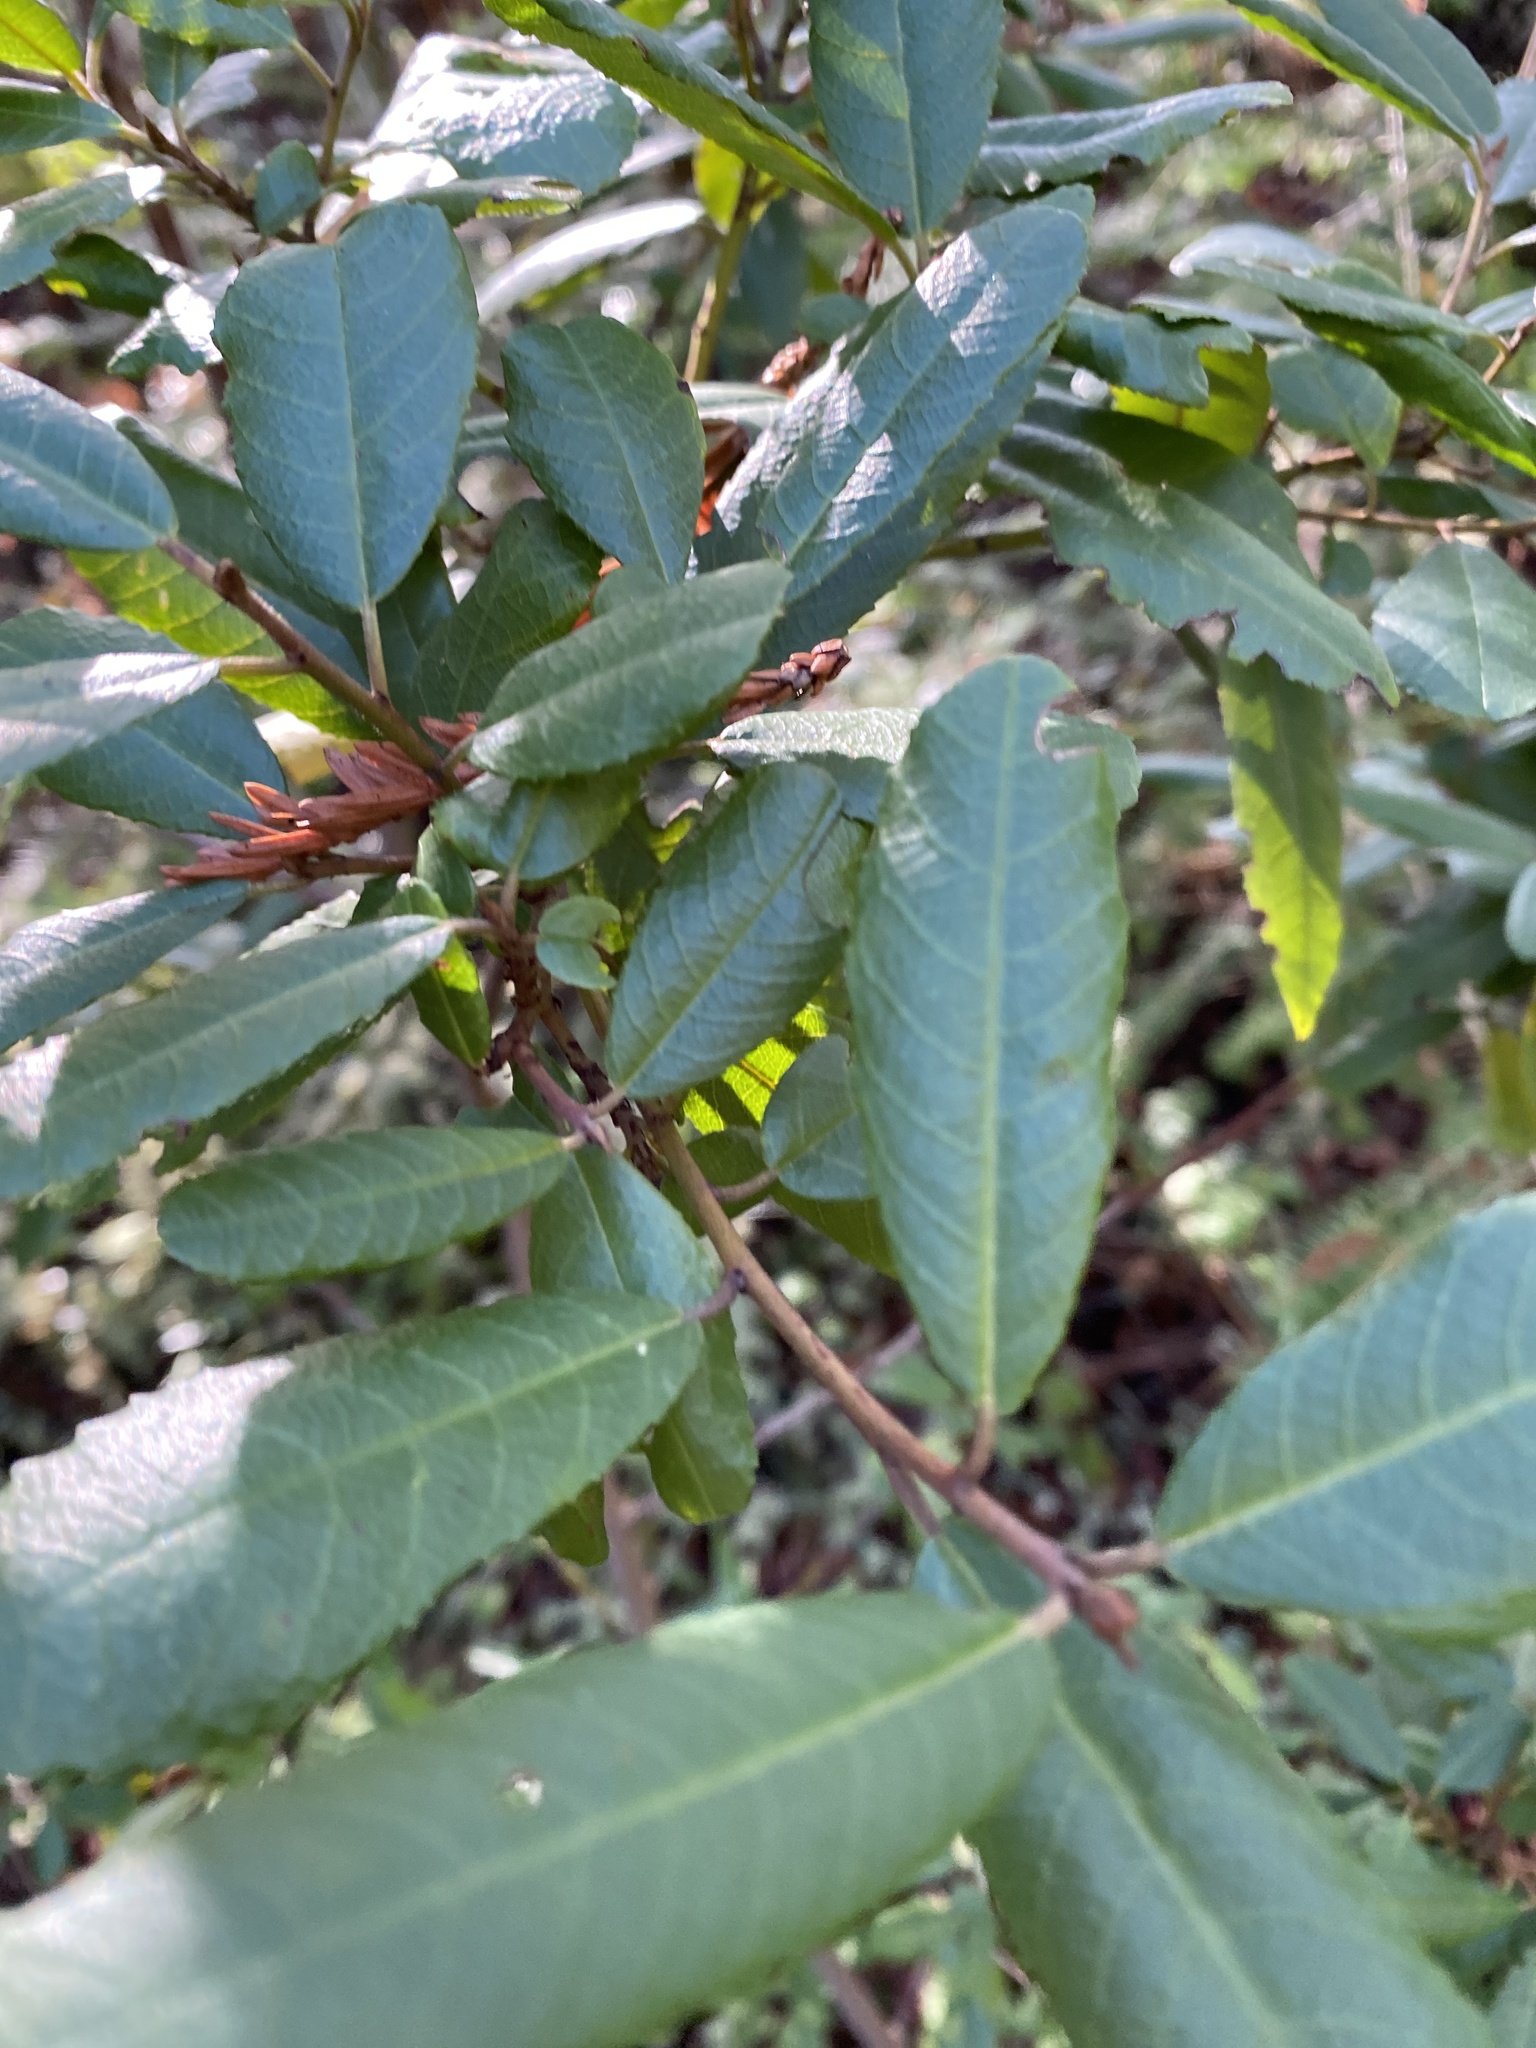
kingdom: Plantae
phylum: Tracheophyta
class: Magnoliopsida
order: Rosales
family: Rhamnaceae
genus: Frangula
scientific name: Frangula californica
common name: California buckthorn
